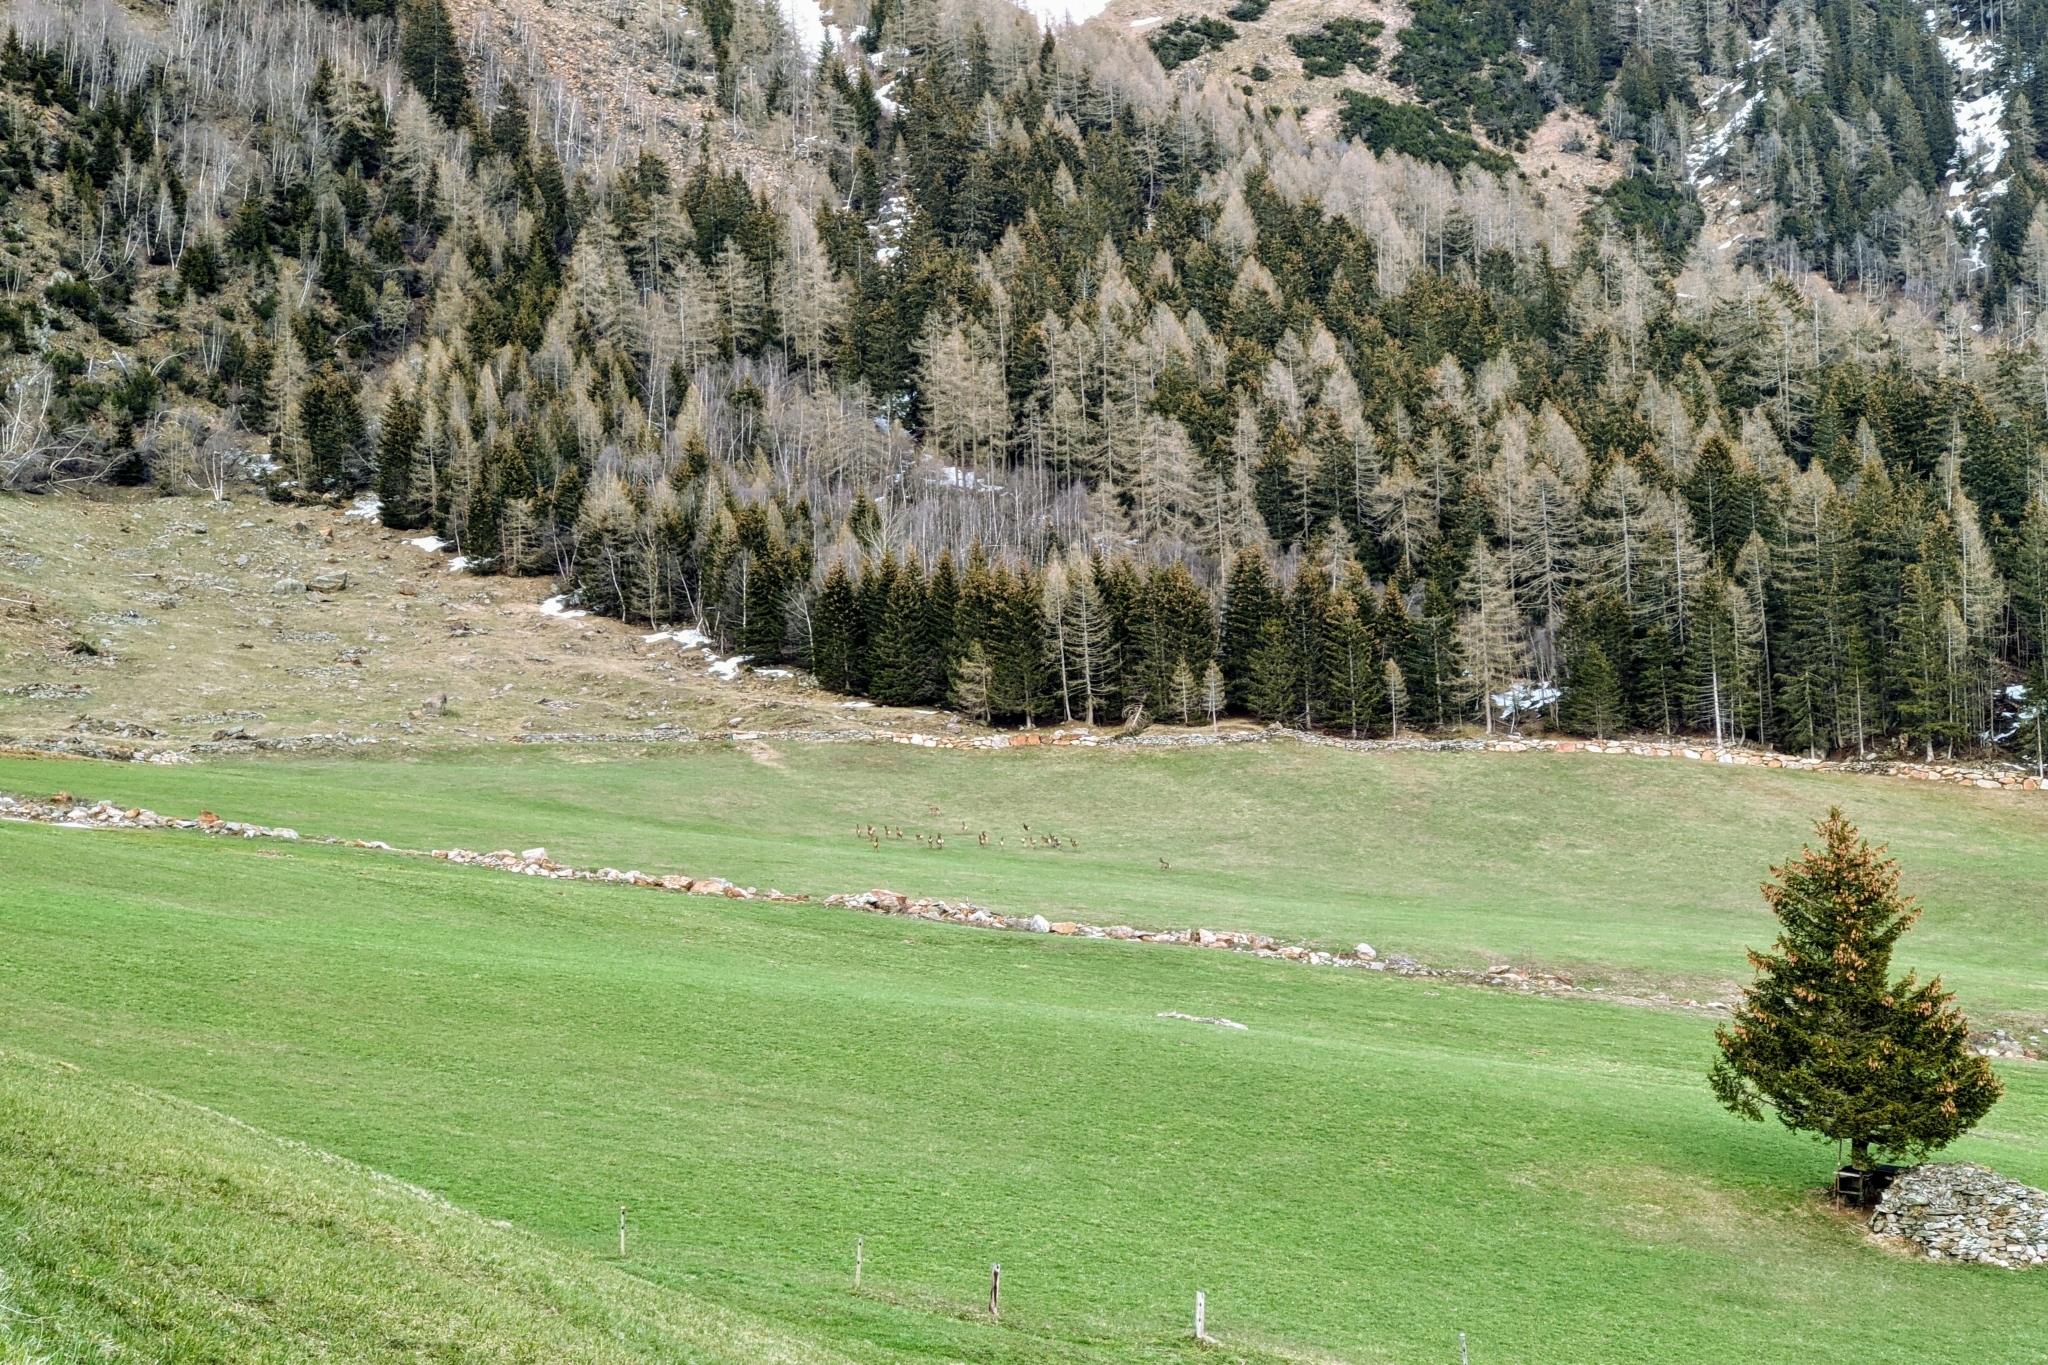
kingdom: Animalia
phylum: Chordata
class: Mammalia
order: Artiodactyla
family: Cervidae
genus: Cervus
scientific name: Cervus elaphus
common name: Red deer
